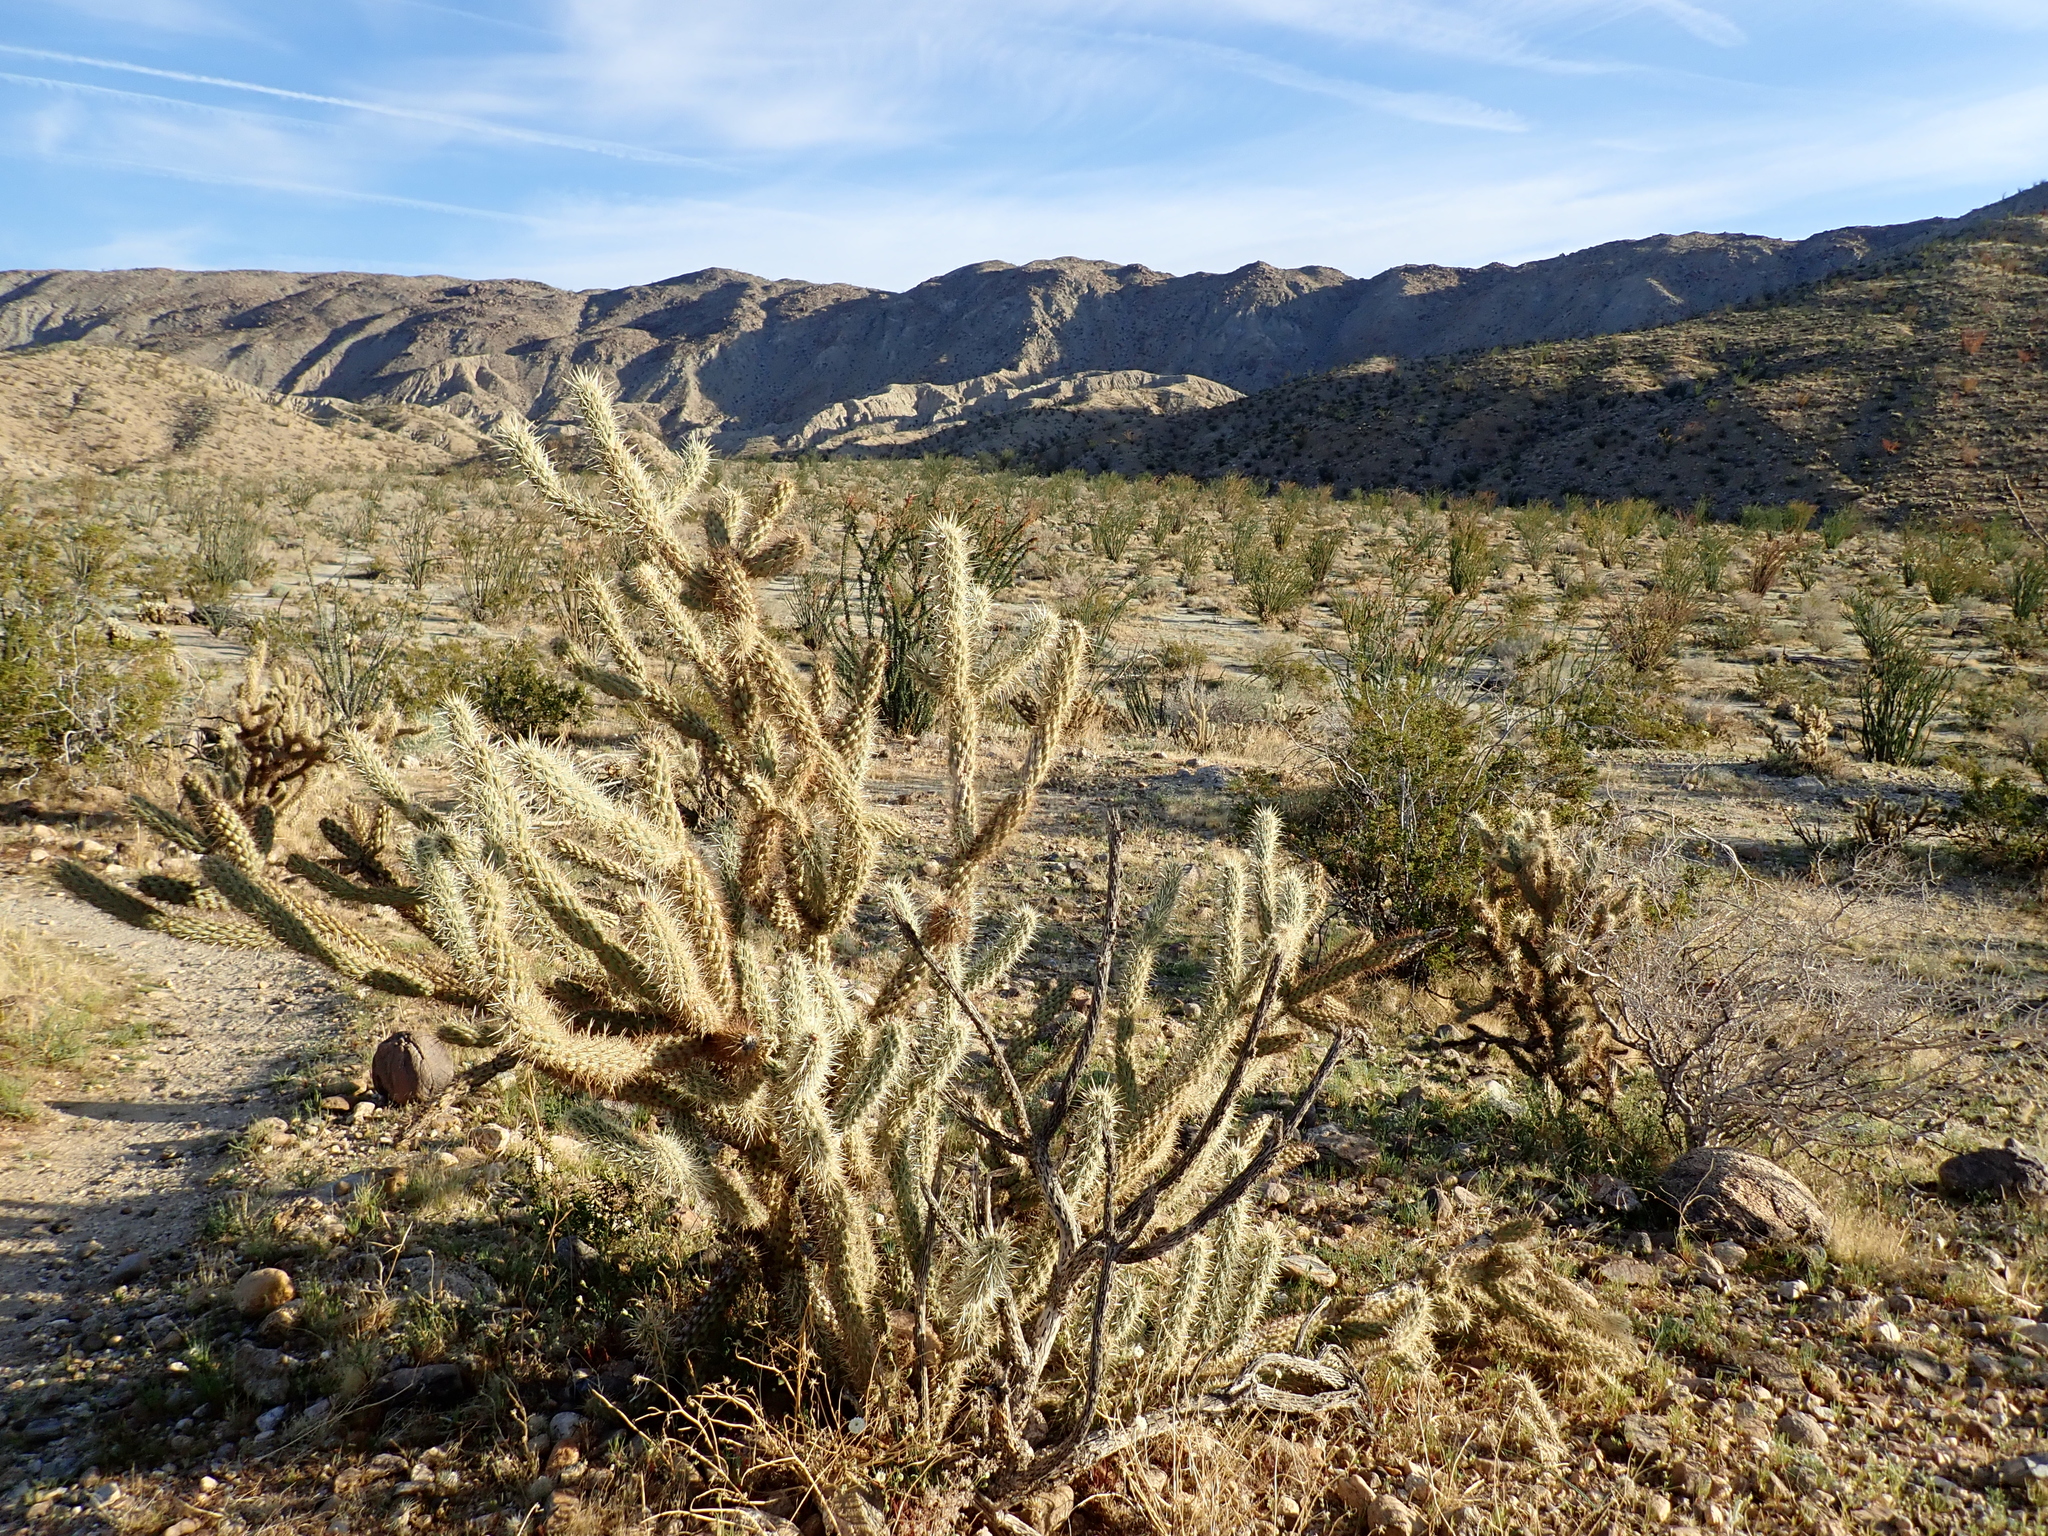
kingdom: Plantae
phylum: Tracheophyta
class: Magnoliopsida
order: Caryophyllales
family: Cactaceae
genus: Cylindropuntia
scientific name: Cylindropuntia ganderi
